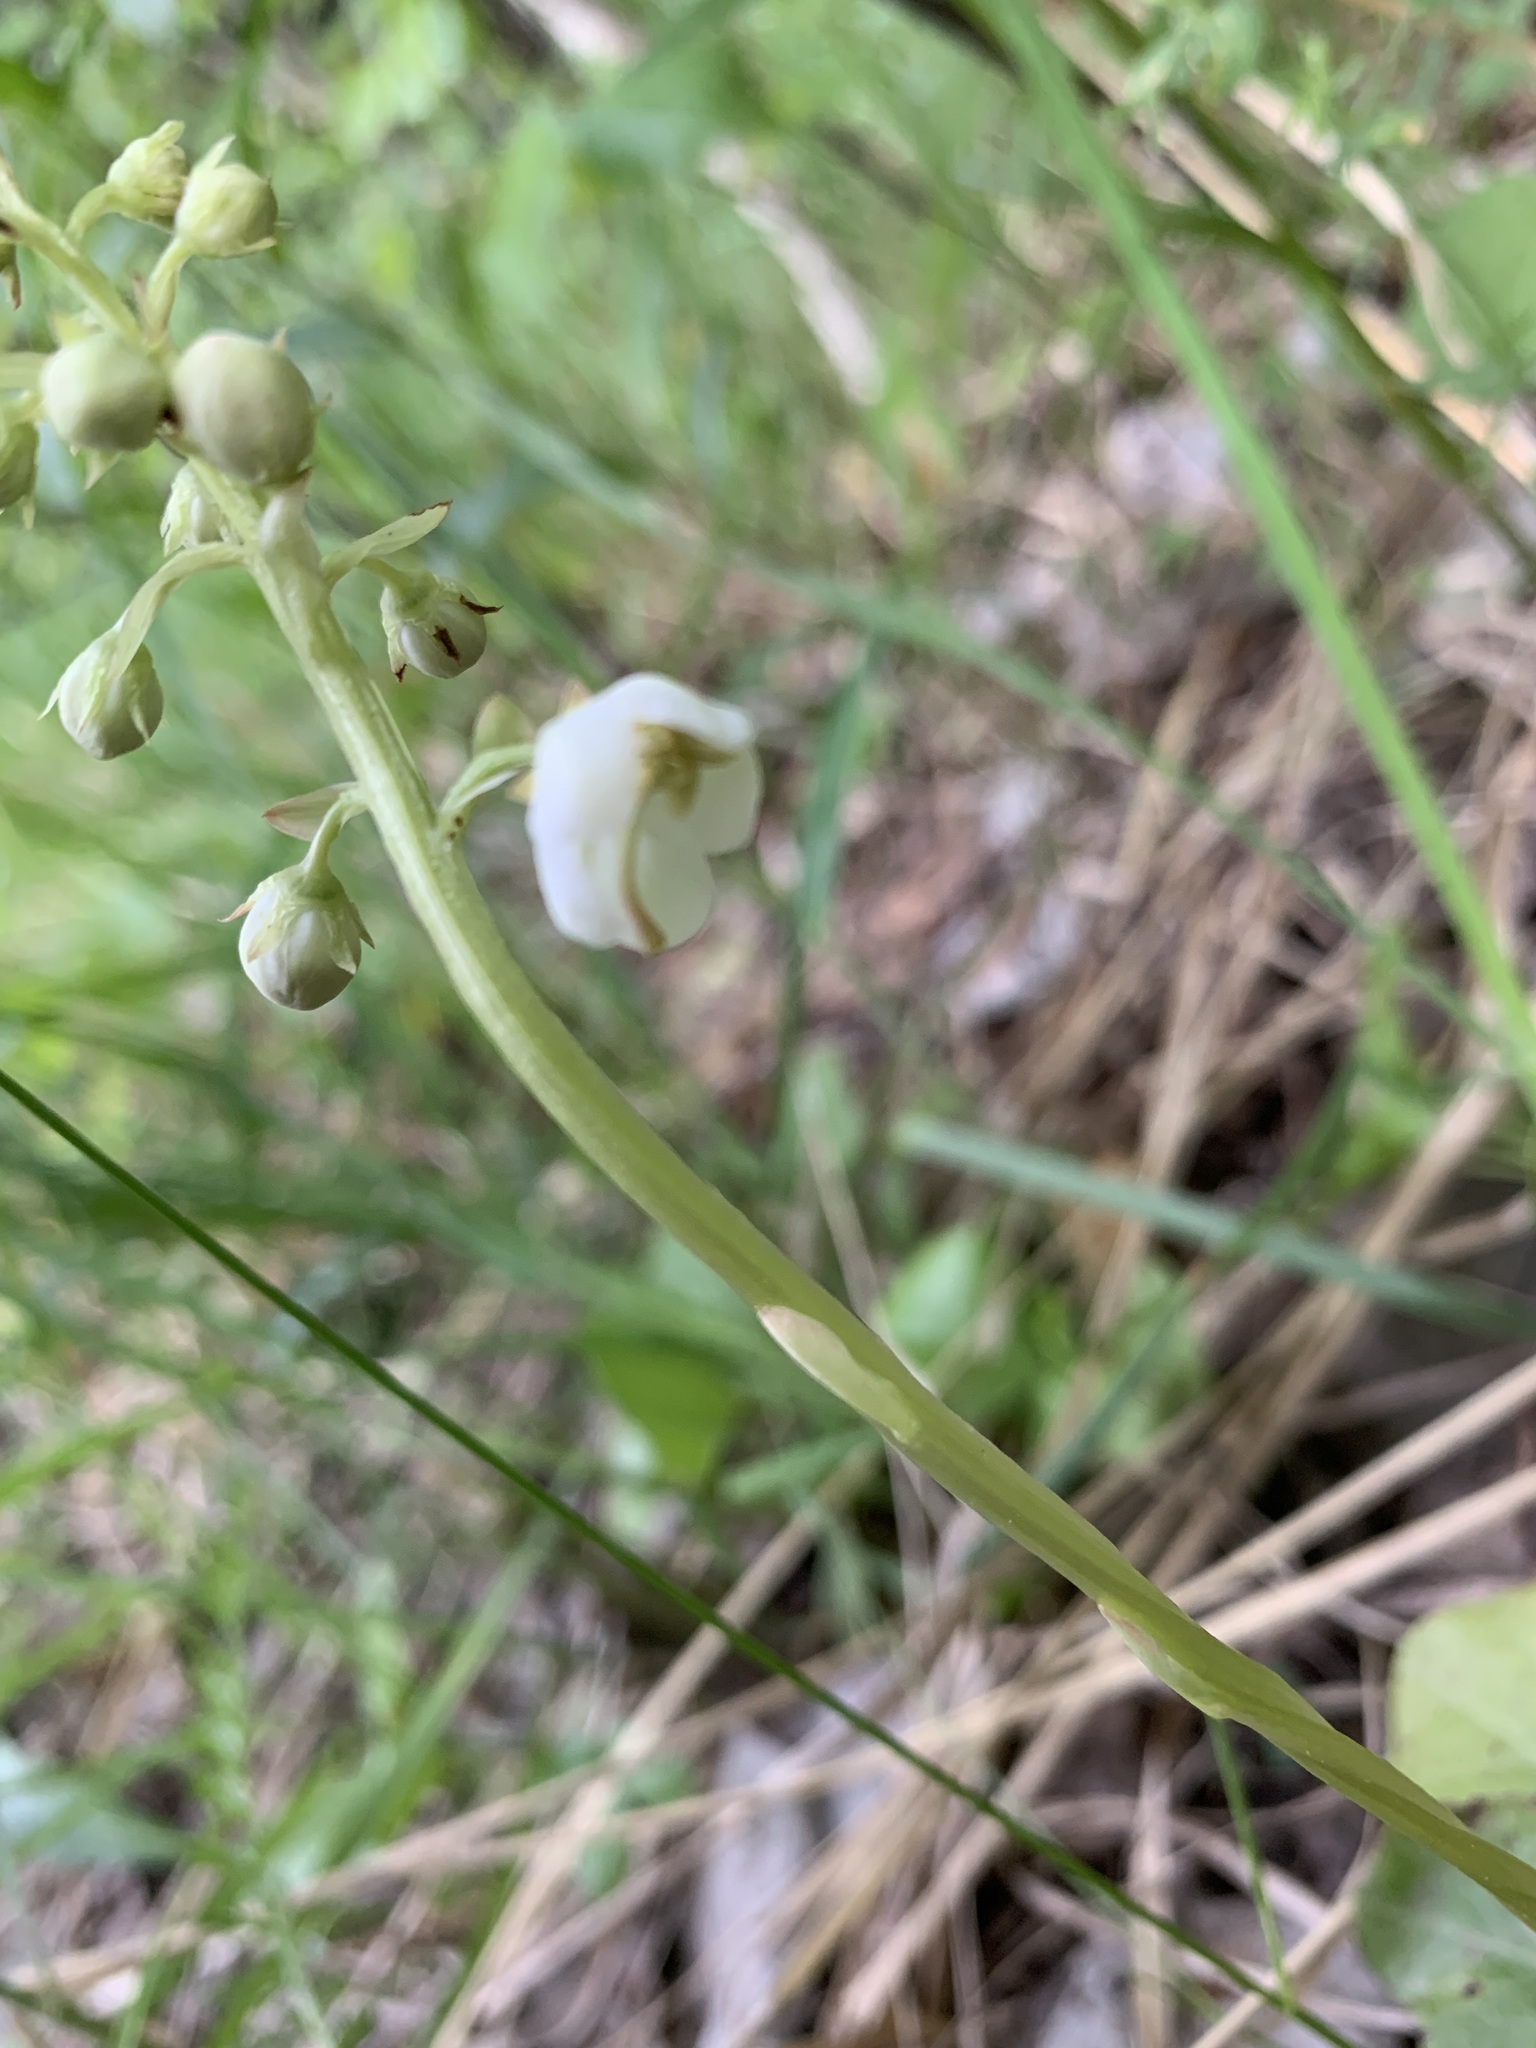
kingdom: Plantae
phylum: Tracheophyta
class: Magnoliopsida
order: Ericales
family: Ericaceae
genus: Pyrola
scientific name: Pyrola rotundifolia
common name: Round-leaved wintergreen
